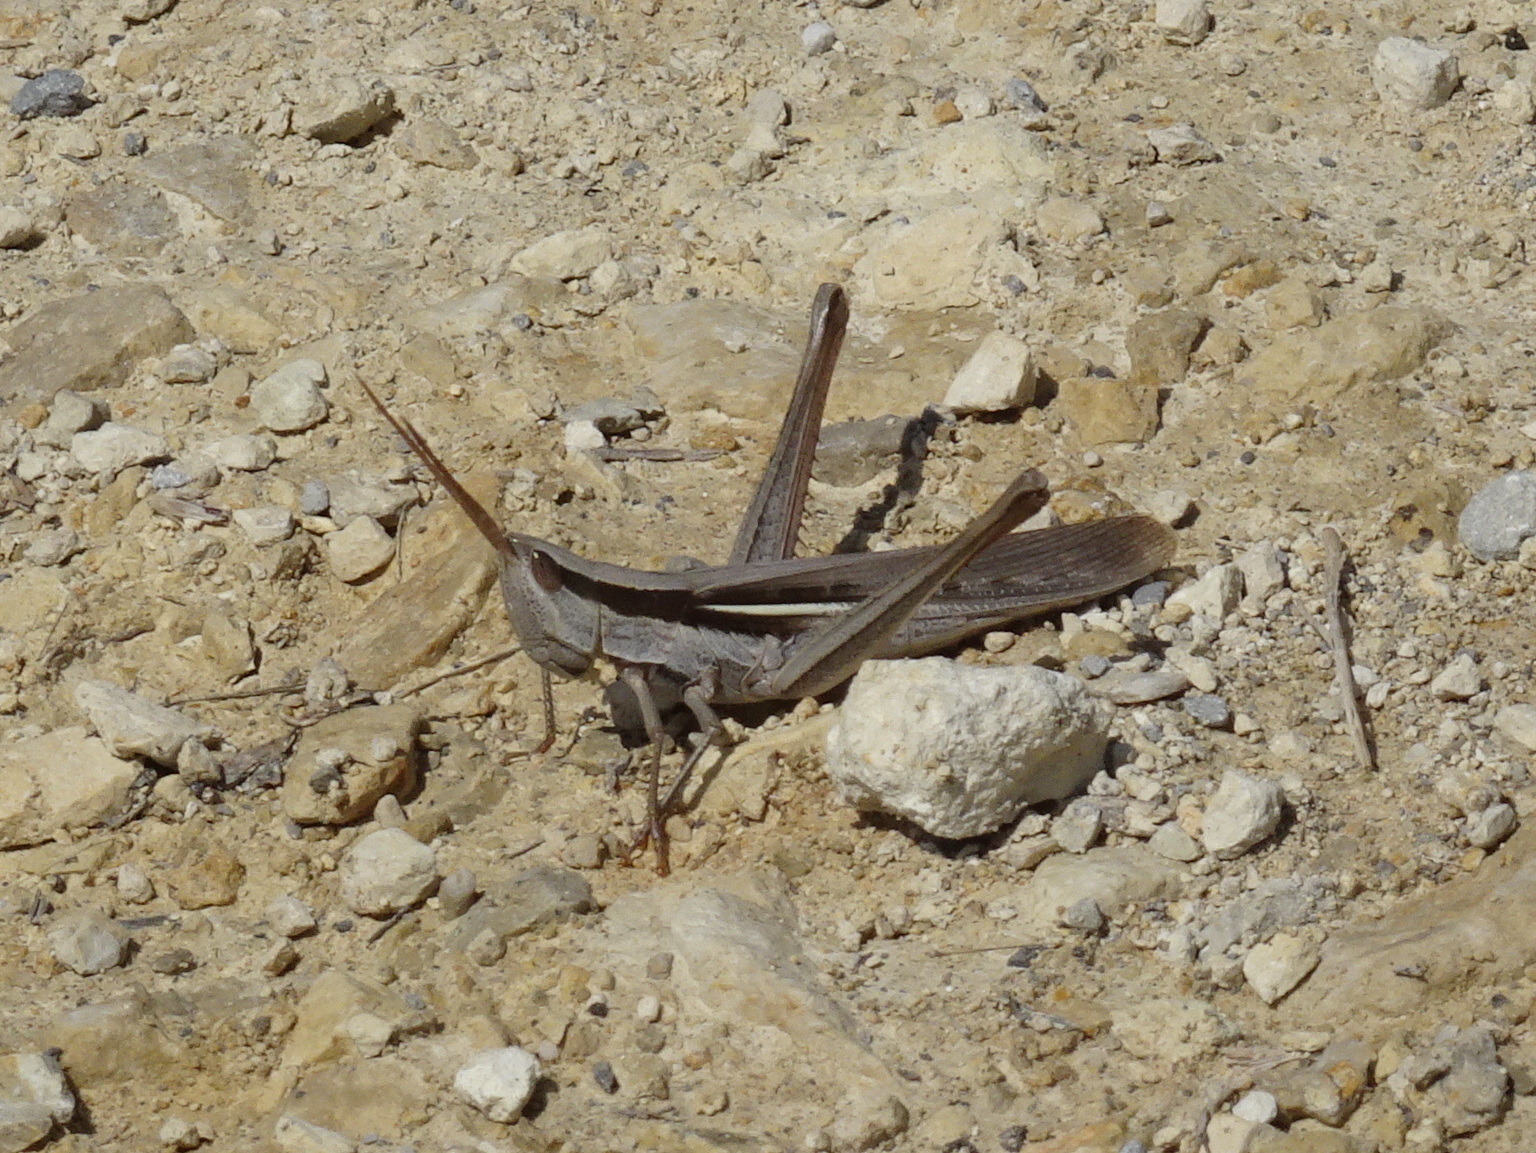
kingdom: Animalia
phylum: Arthropoda
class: Insecta
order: Orthoptera
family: Acrididae
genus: Mermiria
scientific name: Mermiria bivittata
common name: Two-striped mermiria grasshopper
